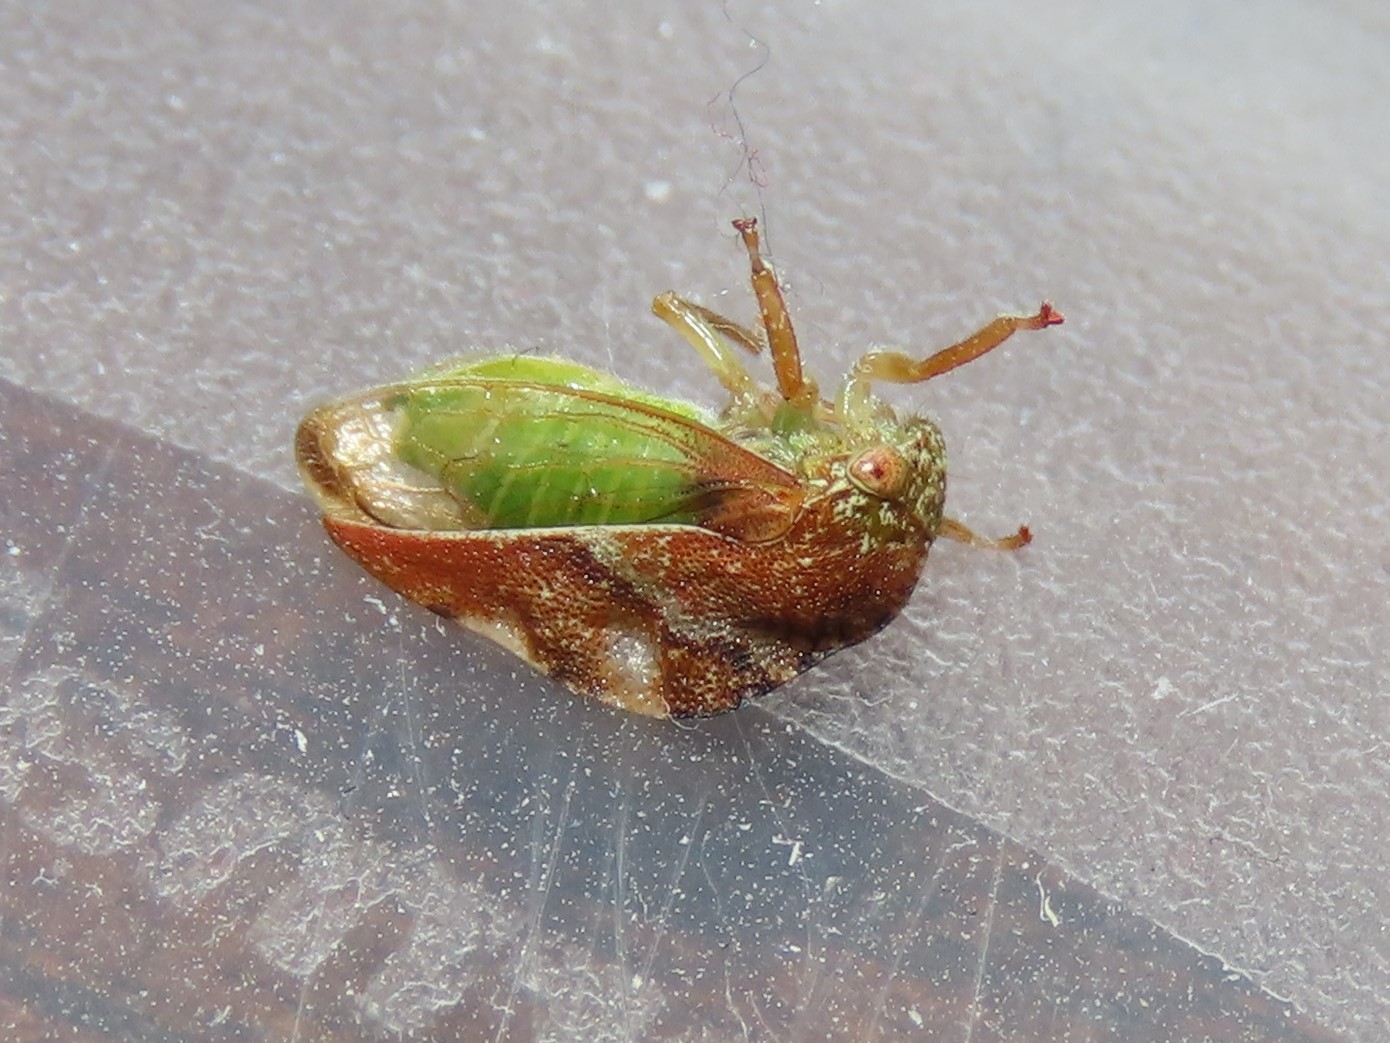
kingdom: Animalia
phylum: Arthropoda
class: Insecta
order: Hemiptera
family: Membracidae
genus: Cyrtolobus
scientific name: Cyrtolobus fenestrata
